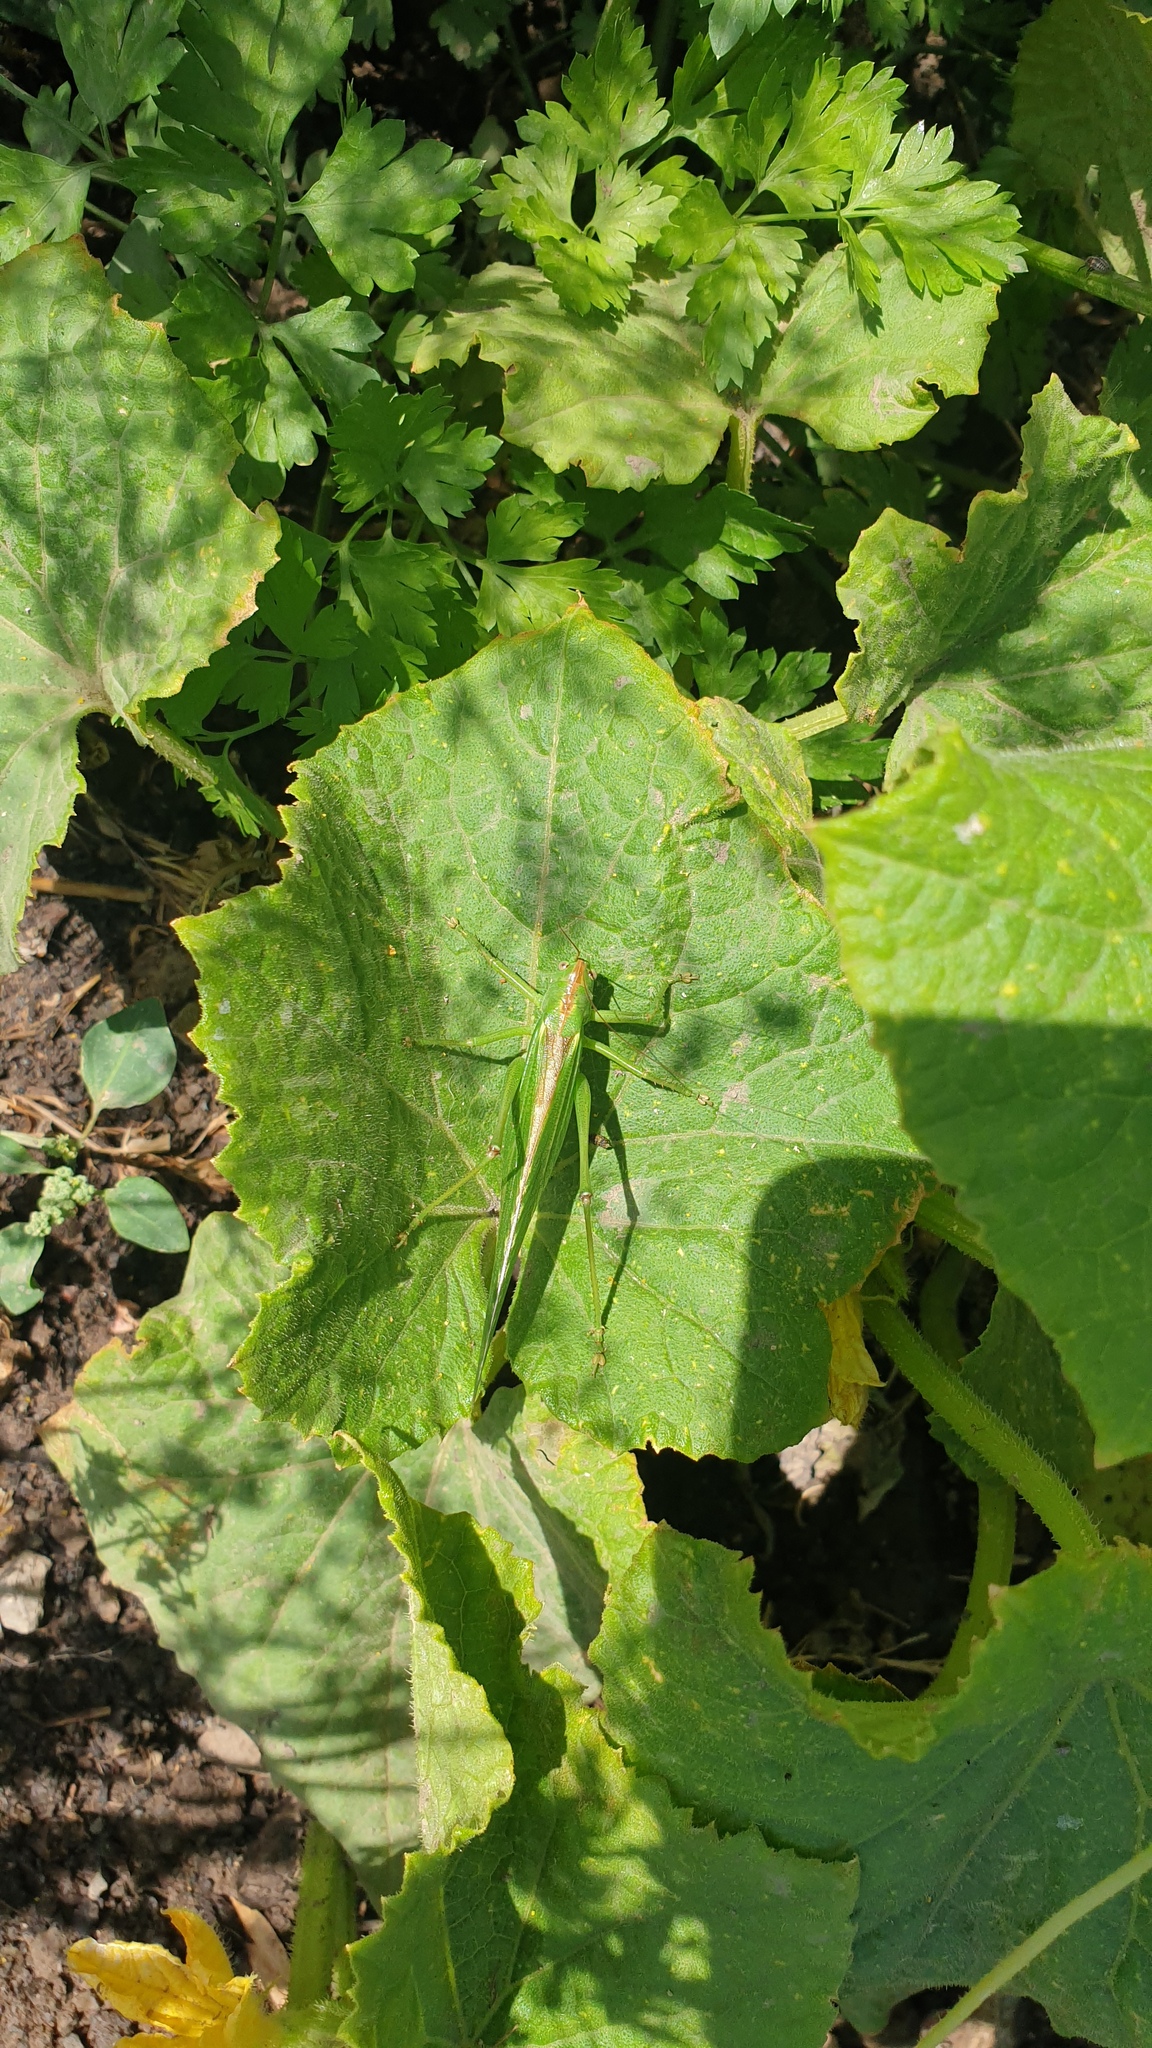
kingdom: Animalia
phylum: Arthropoda
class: Insecta
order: Orthoptera
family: Tettigoniidae
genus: Tettigonia
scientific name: Tettigonia viridissima
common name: Great green bush-cricket
